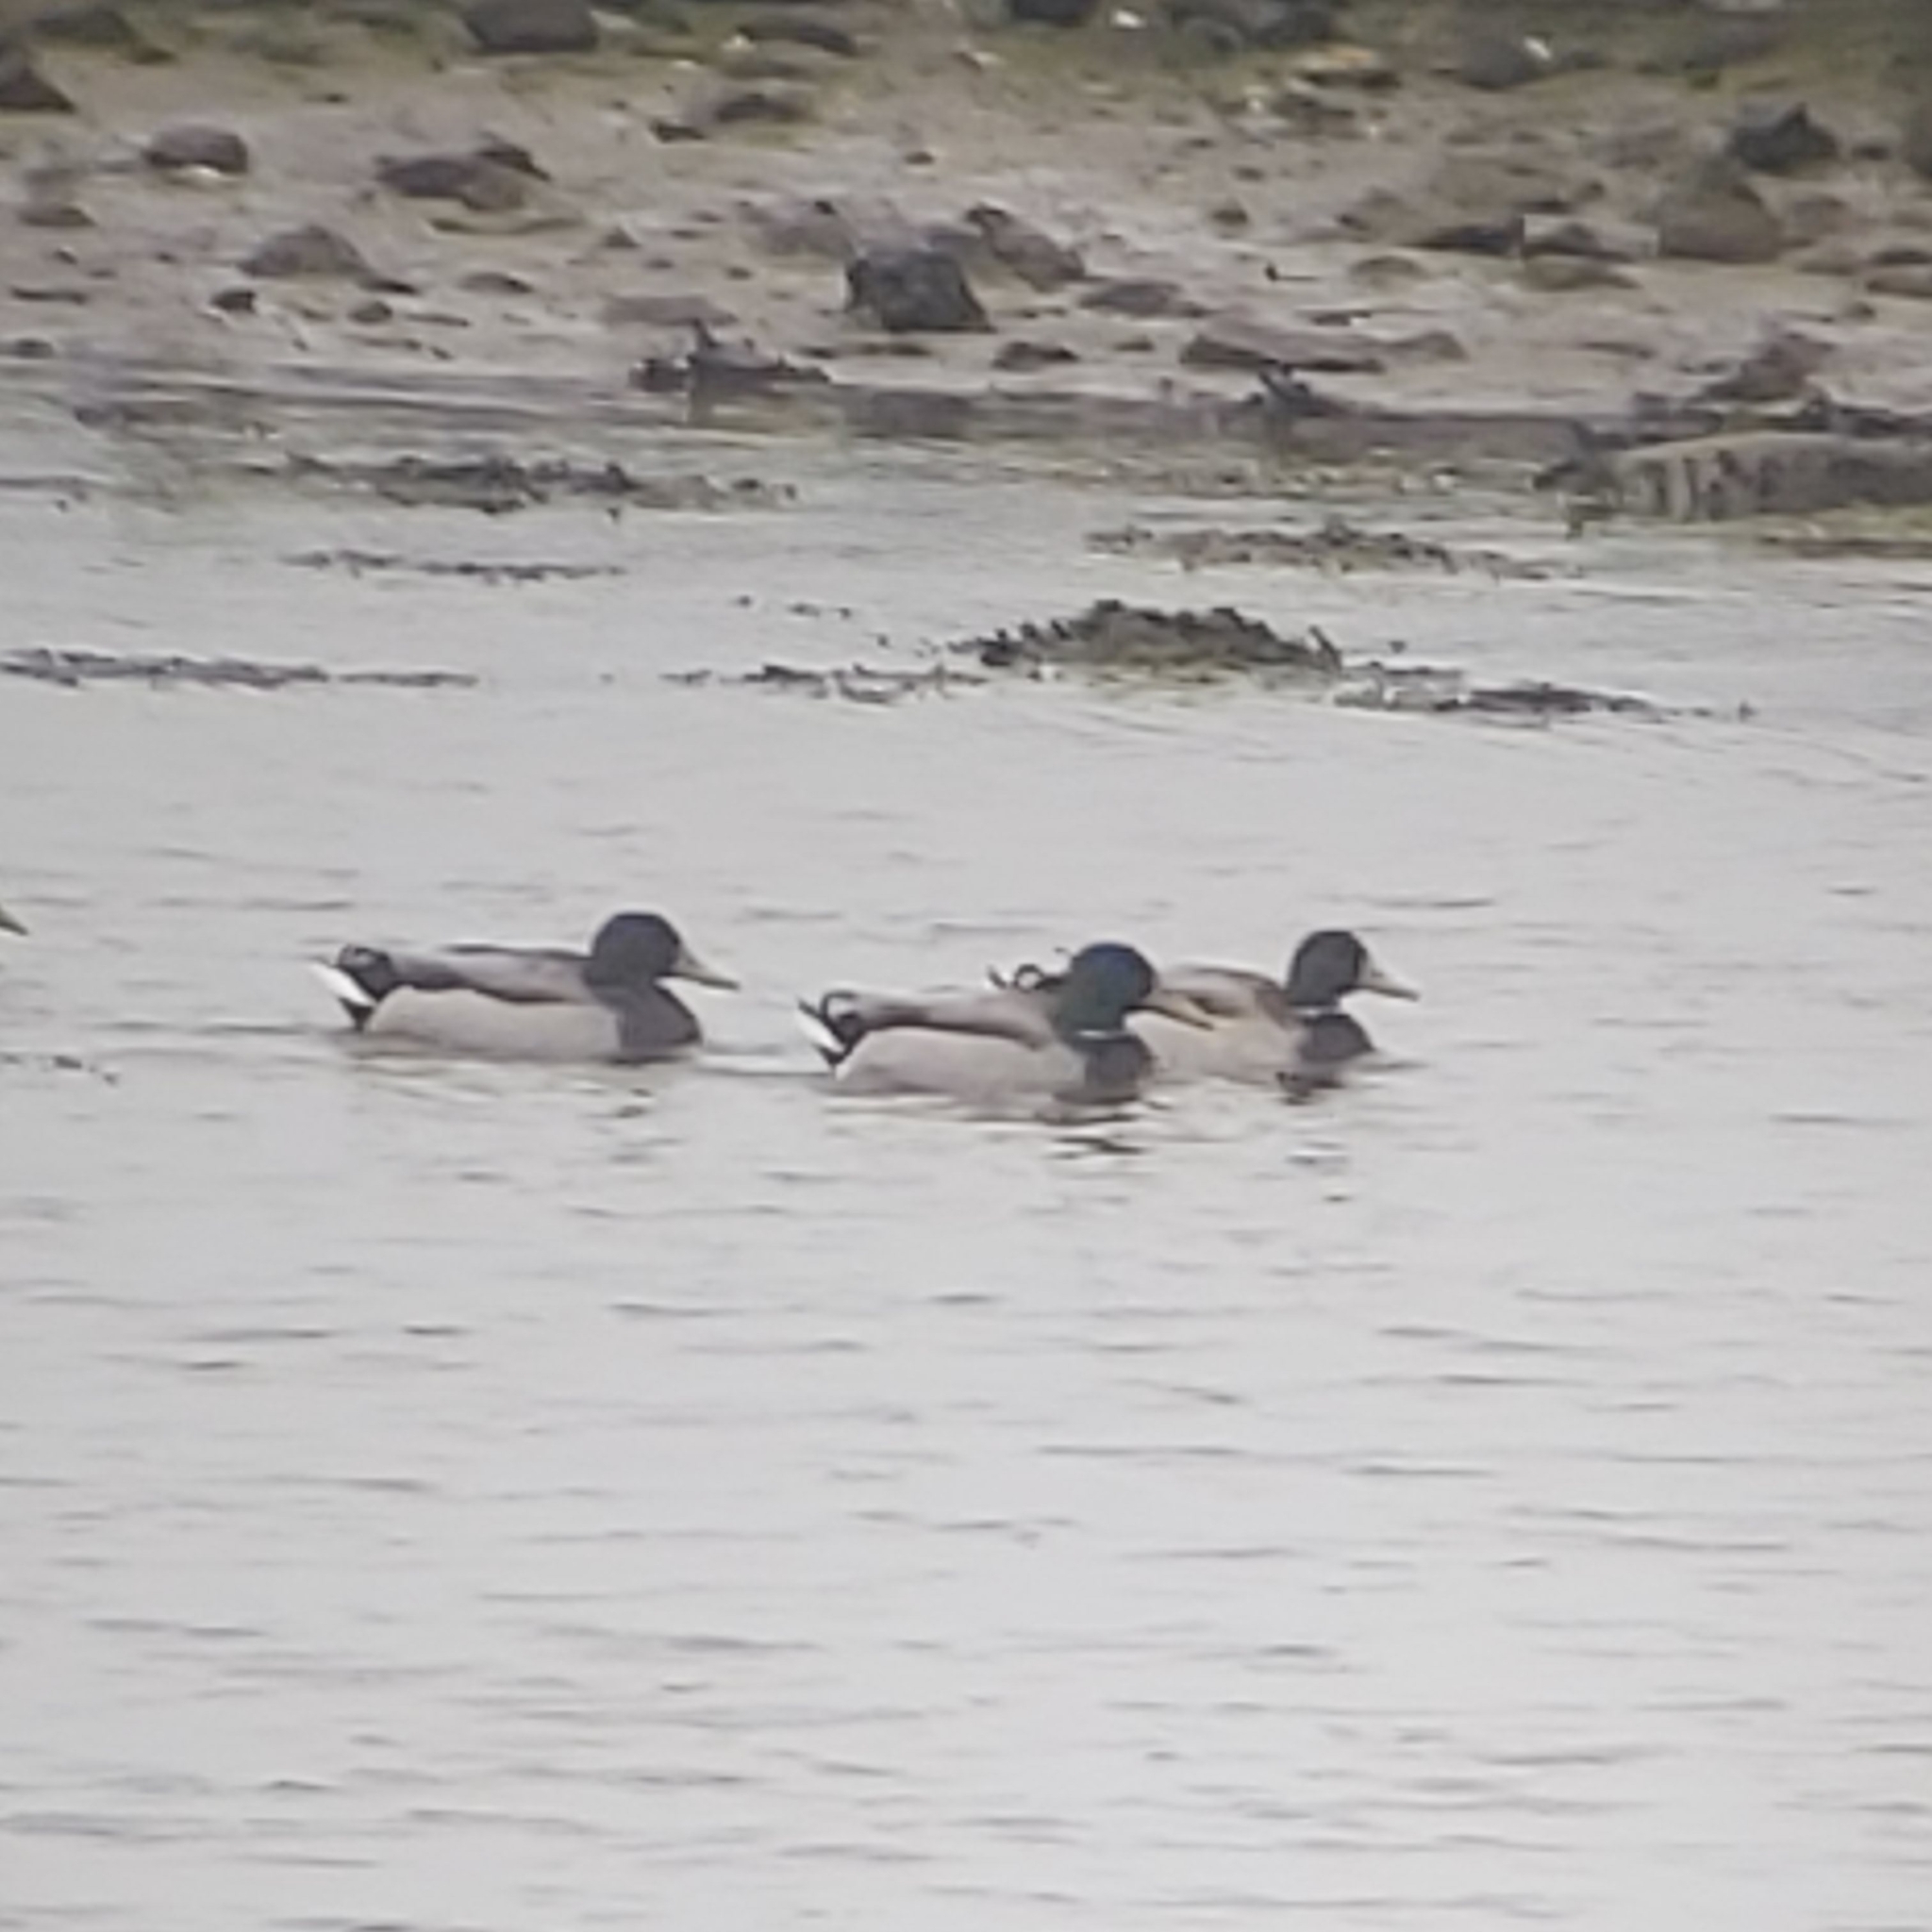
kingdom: Animalia
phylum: Chordata
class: Aves
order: Anseriformes
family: Anatidae
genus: Anas
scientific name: Anas platyrhynchos
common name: Mallard
